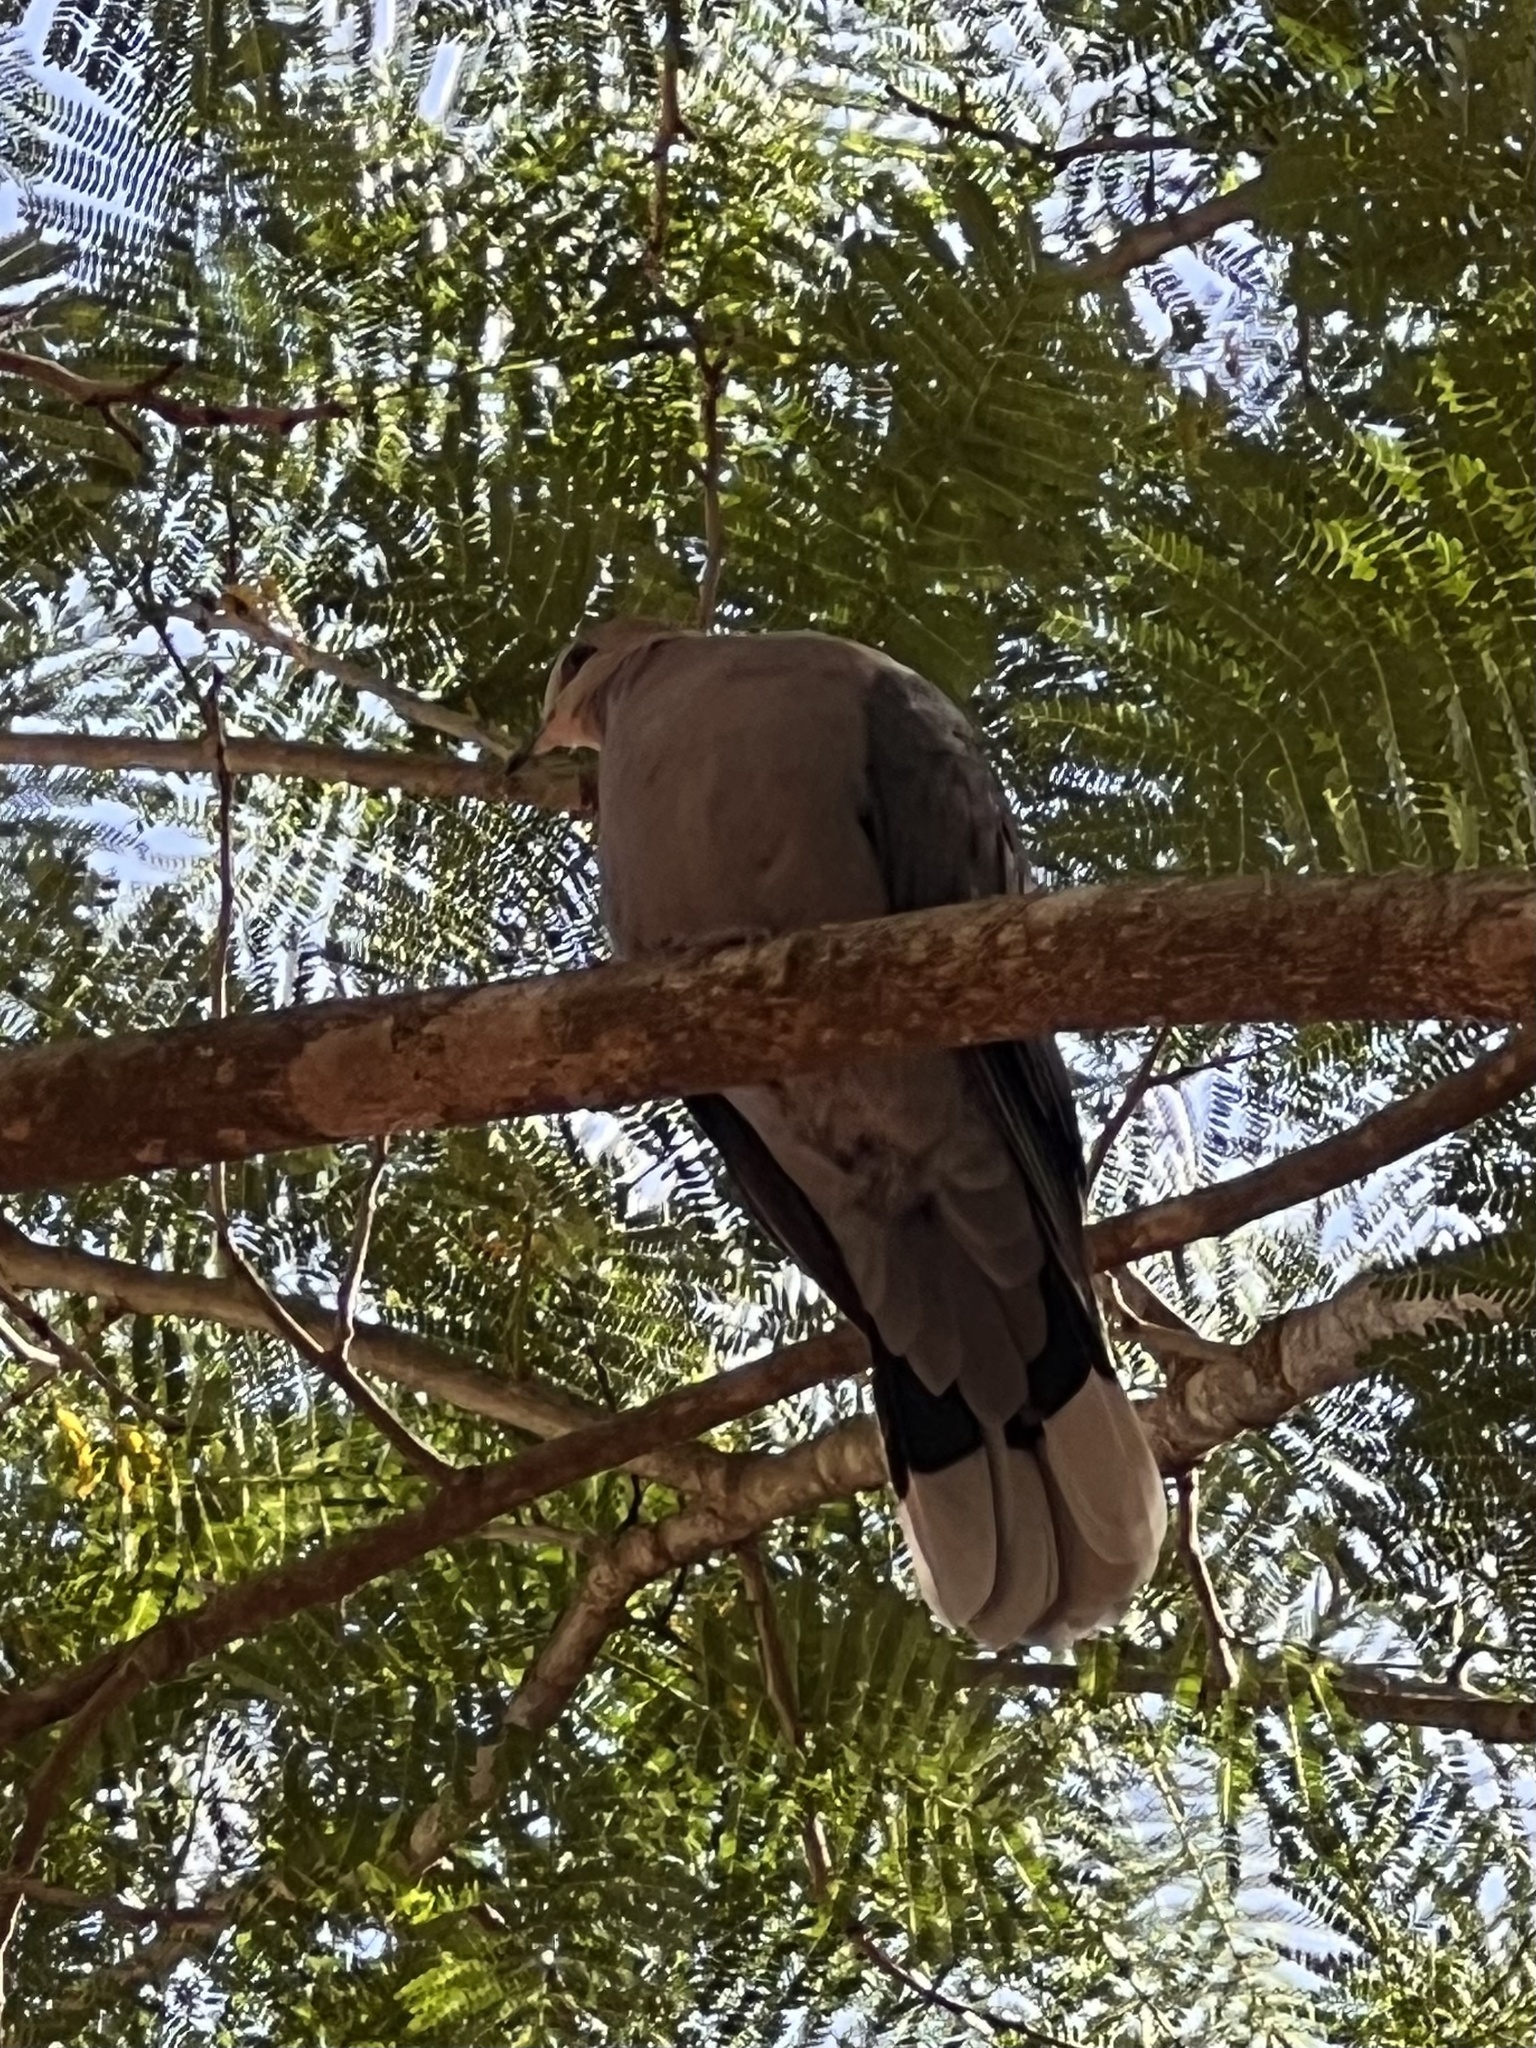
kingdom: Animalia
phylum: Chordata
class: Aves
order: Columbiformes
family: Columbidae
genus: Streptopelia
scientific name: Streptopelia semitorquata
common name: Red-eyed dove
